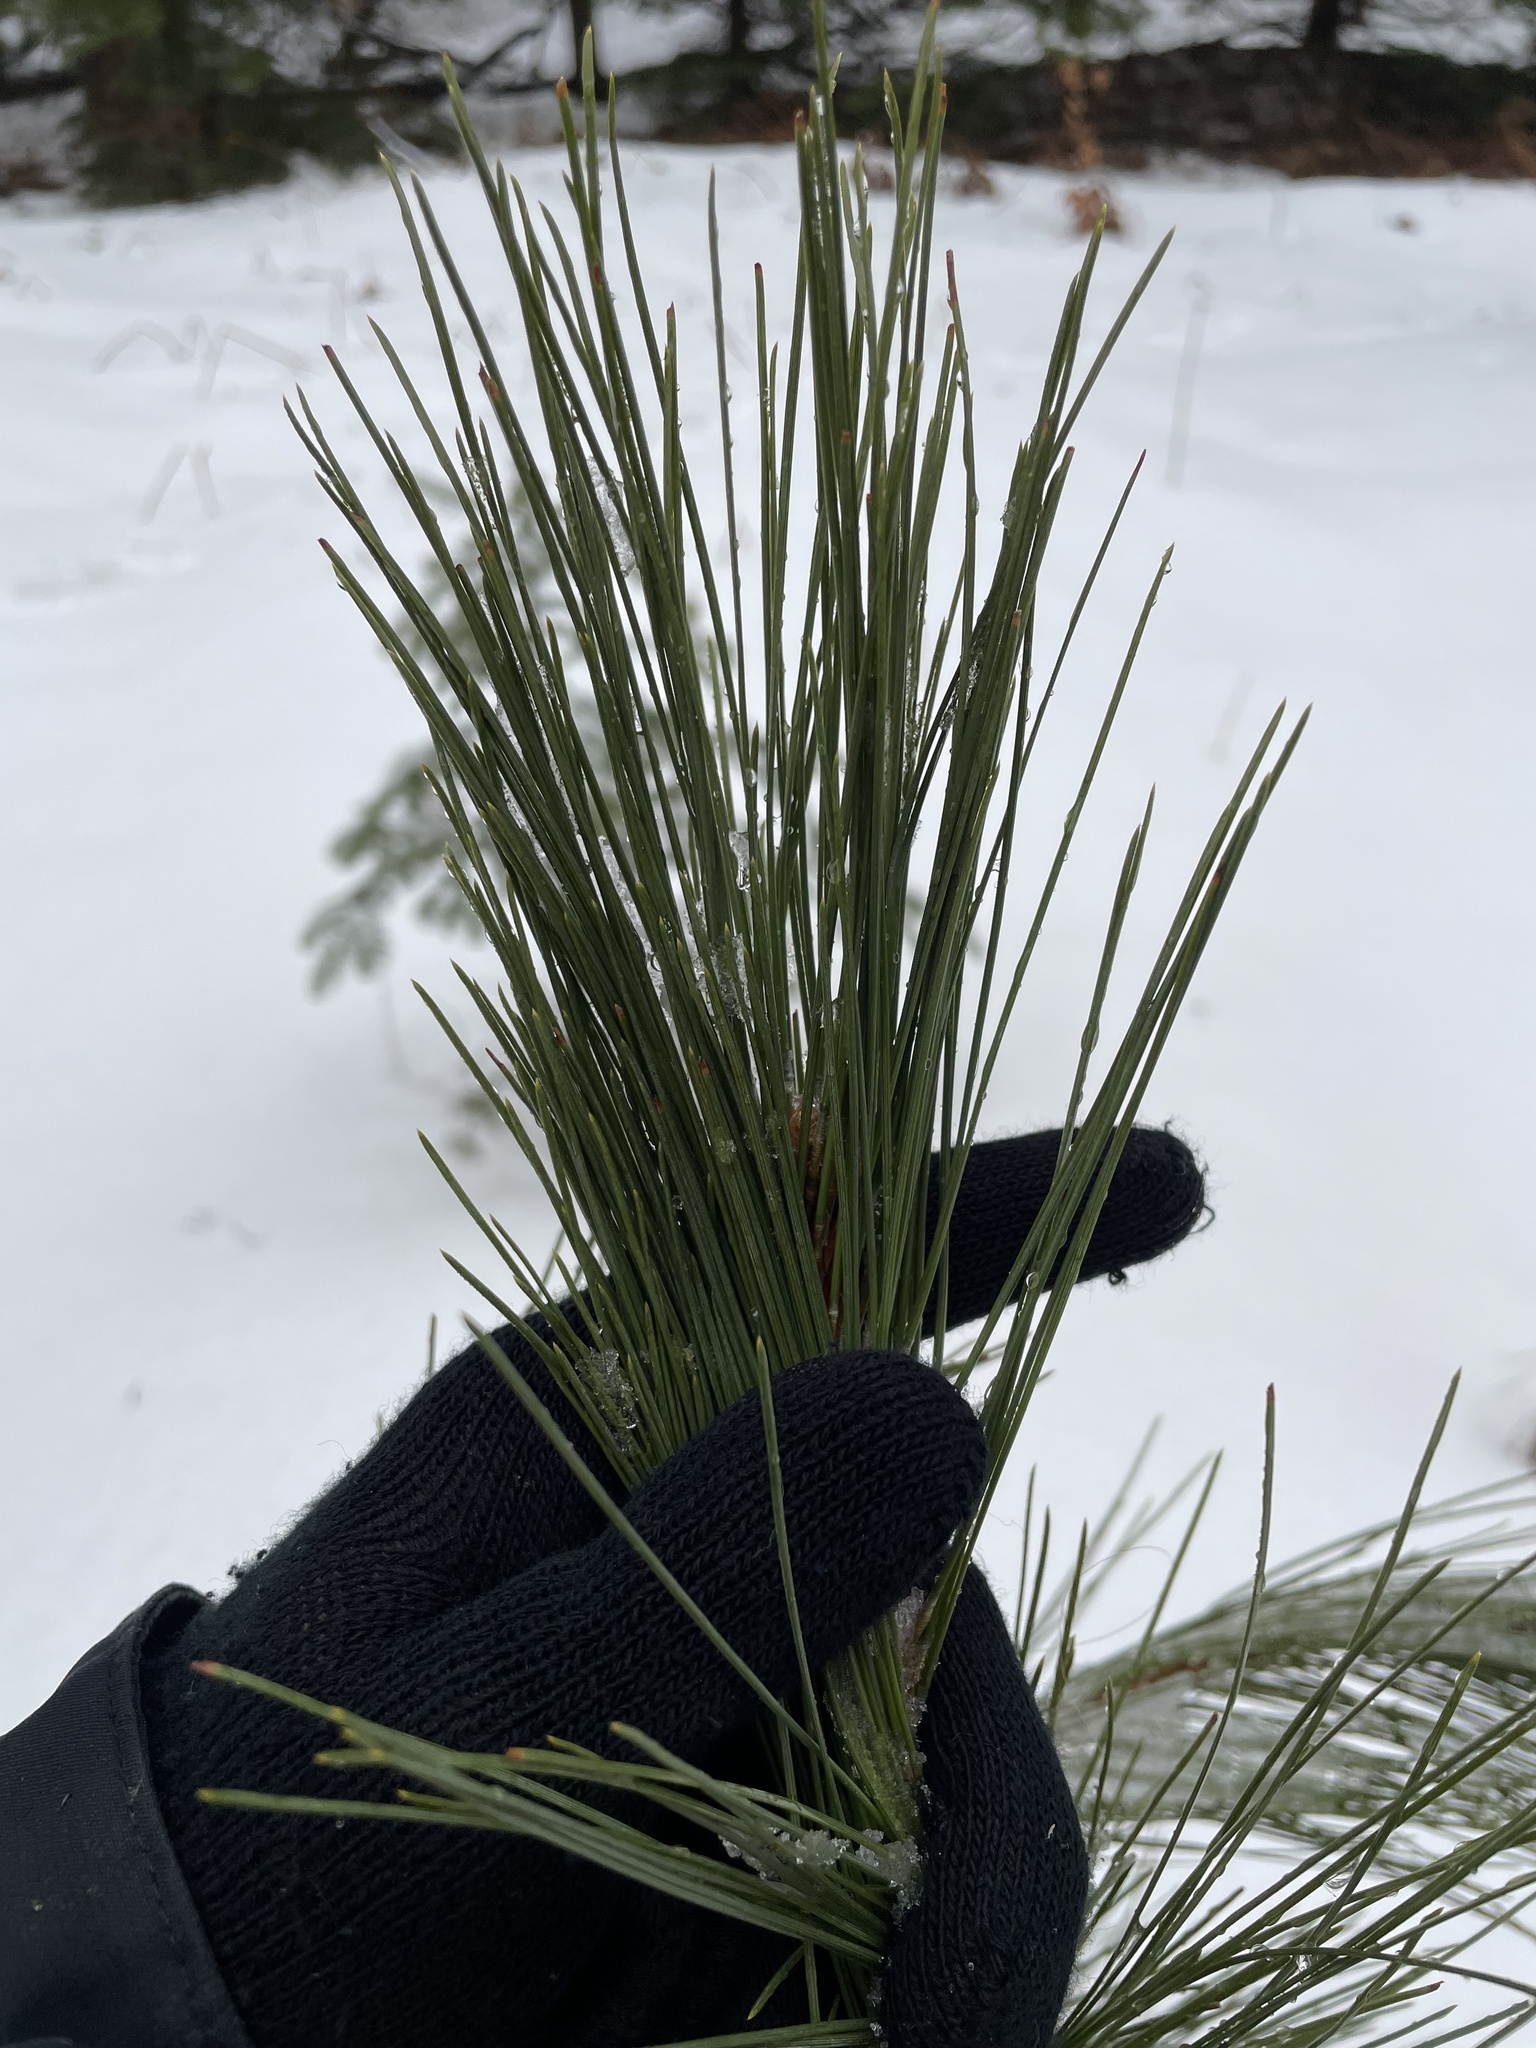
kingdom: Plantae
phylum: Tracheophyta
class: Pinopsida
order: Pinales
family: Pinaceae
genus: Pinus
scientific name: Pinus resinosa
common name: Norway pine
